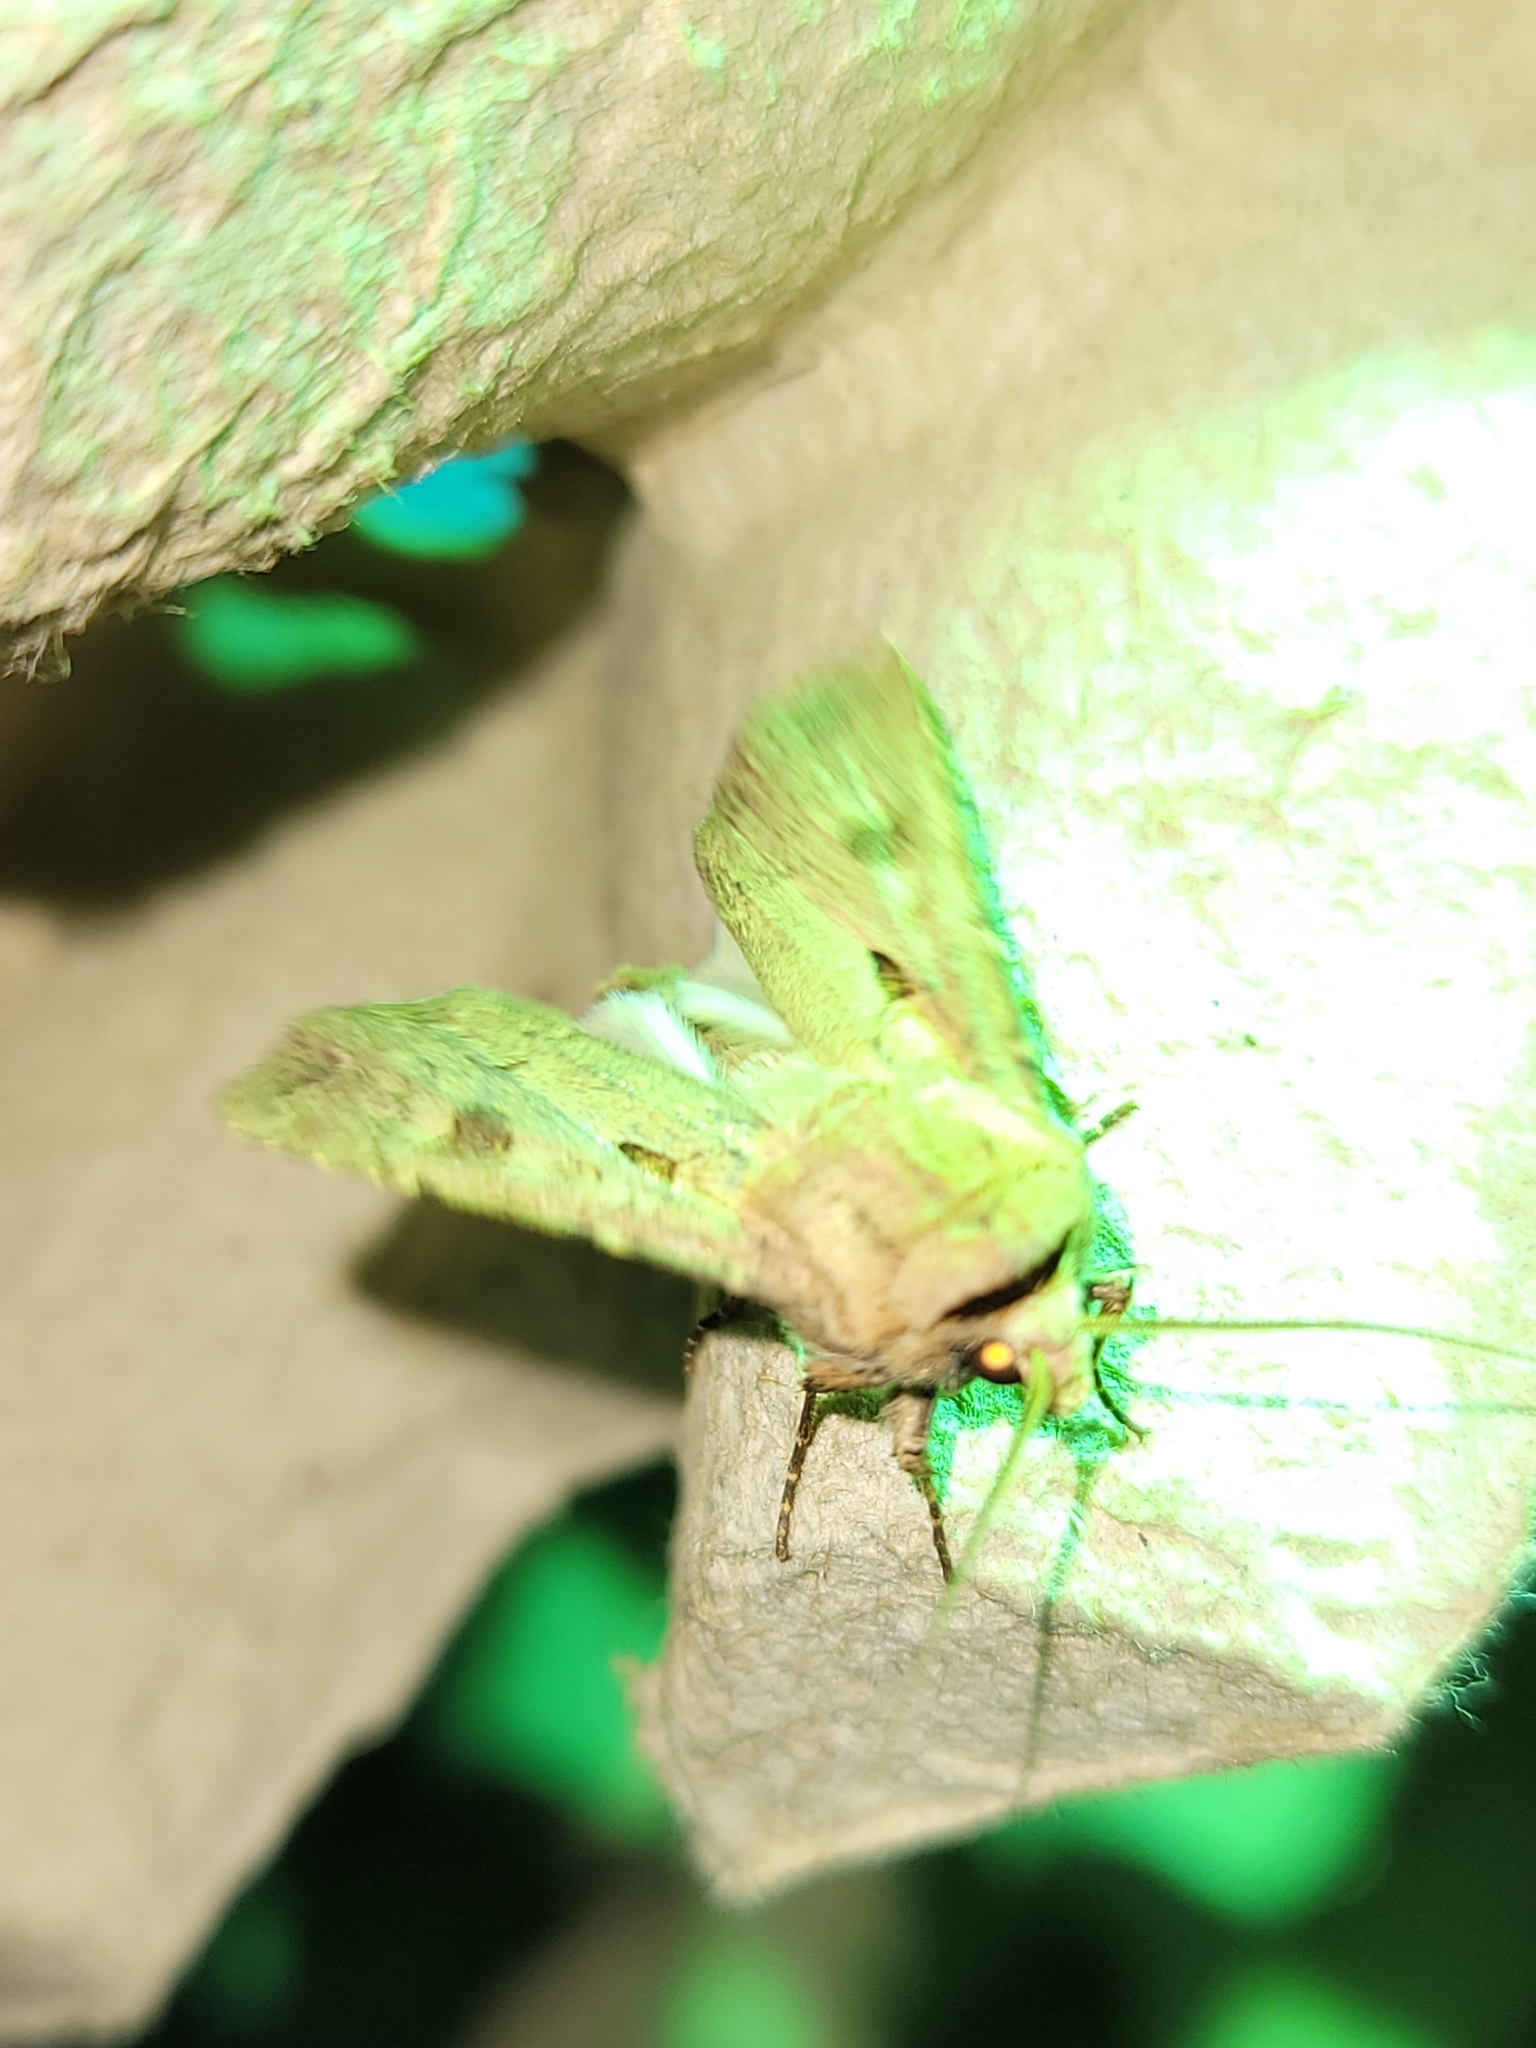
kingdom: Animalia
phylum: Arthropoda
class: Insecta
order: Lepidoptera
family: Noctuidae
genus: Agrotis
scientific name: Agrotis exclamationis
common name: Heart and dart
